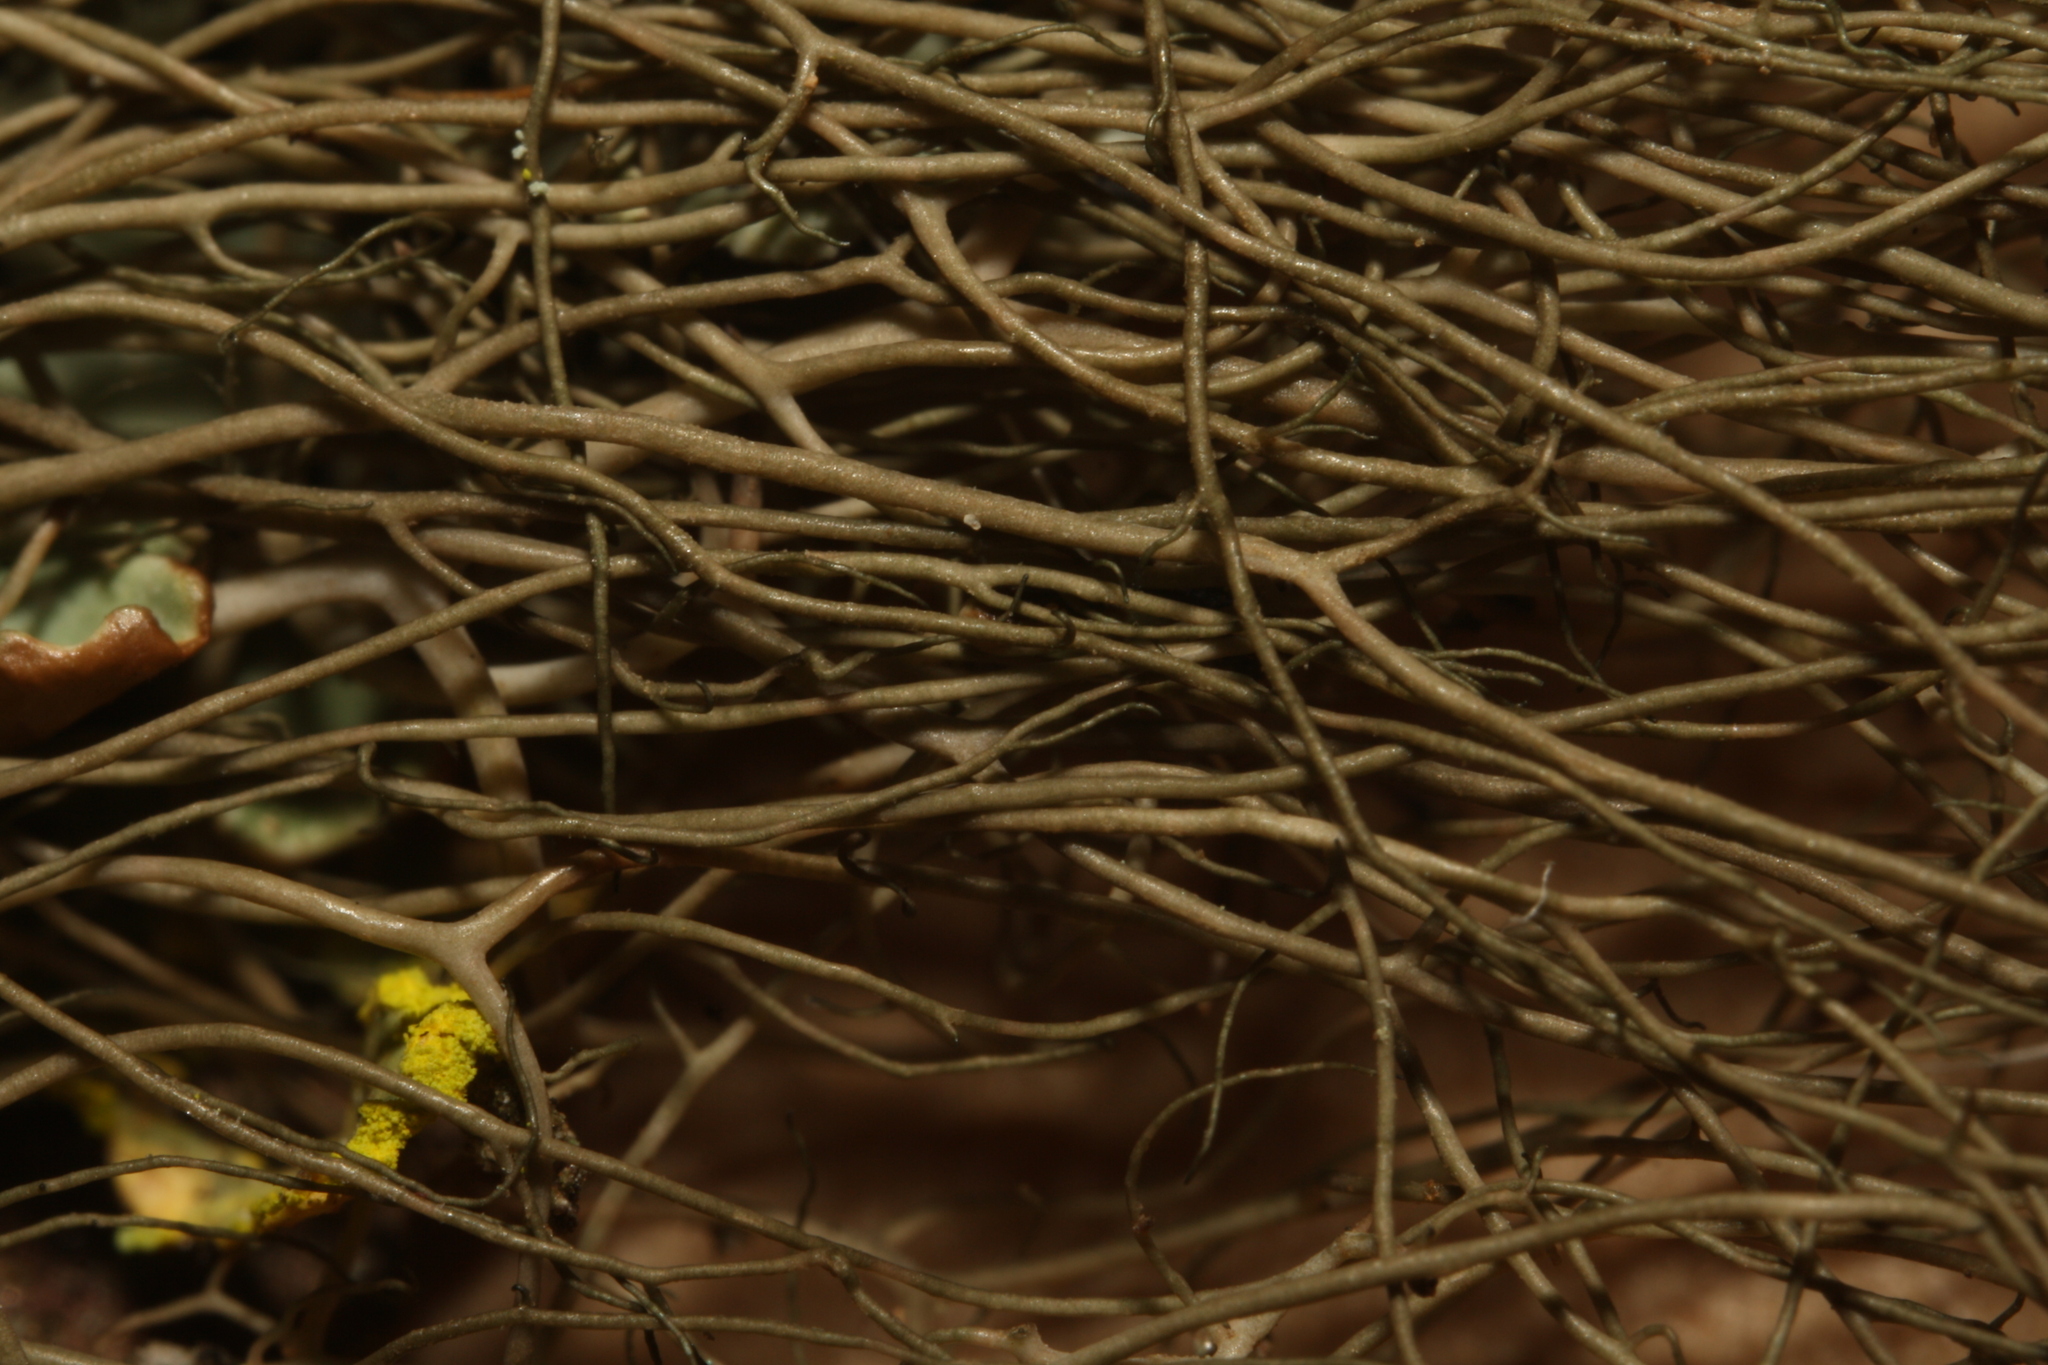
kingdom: Fungi
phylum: Ascomycota
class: Lecanoromycetes
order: Lecanorales
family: Parmeliaceae
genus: Bryoria
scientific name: Bryoria fuscescens
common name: Pale-footed horsehair lichen
